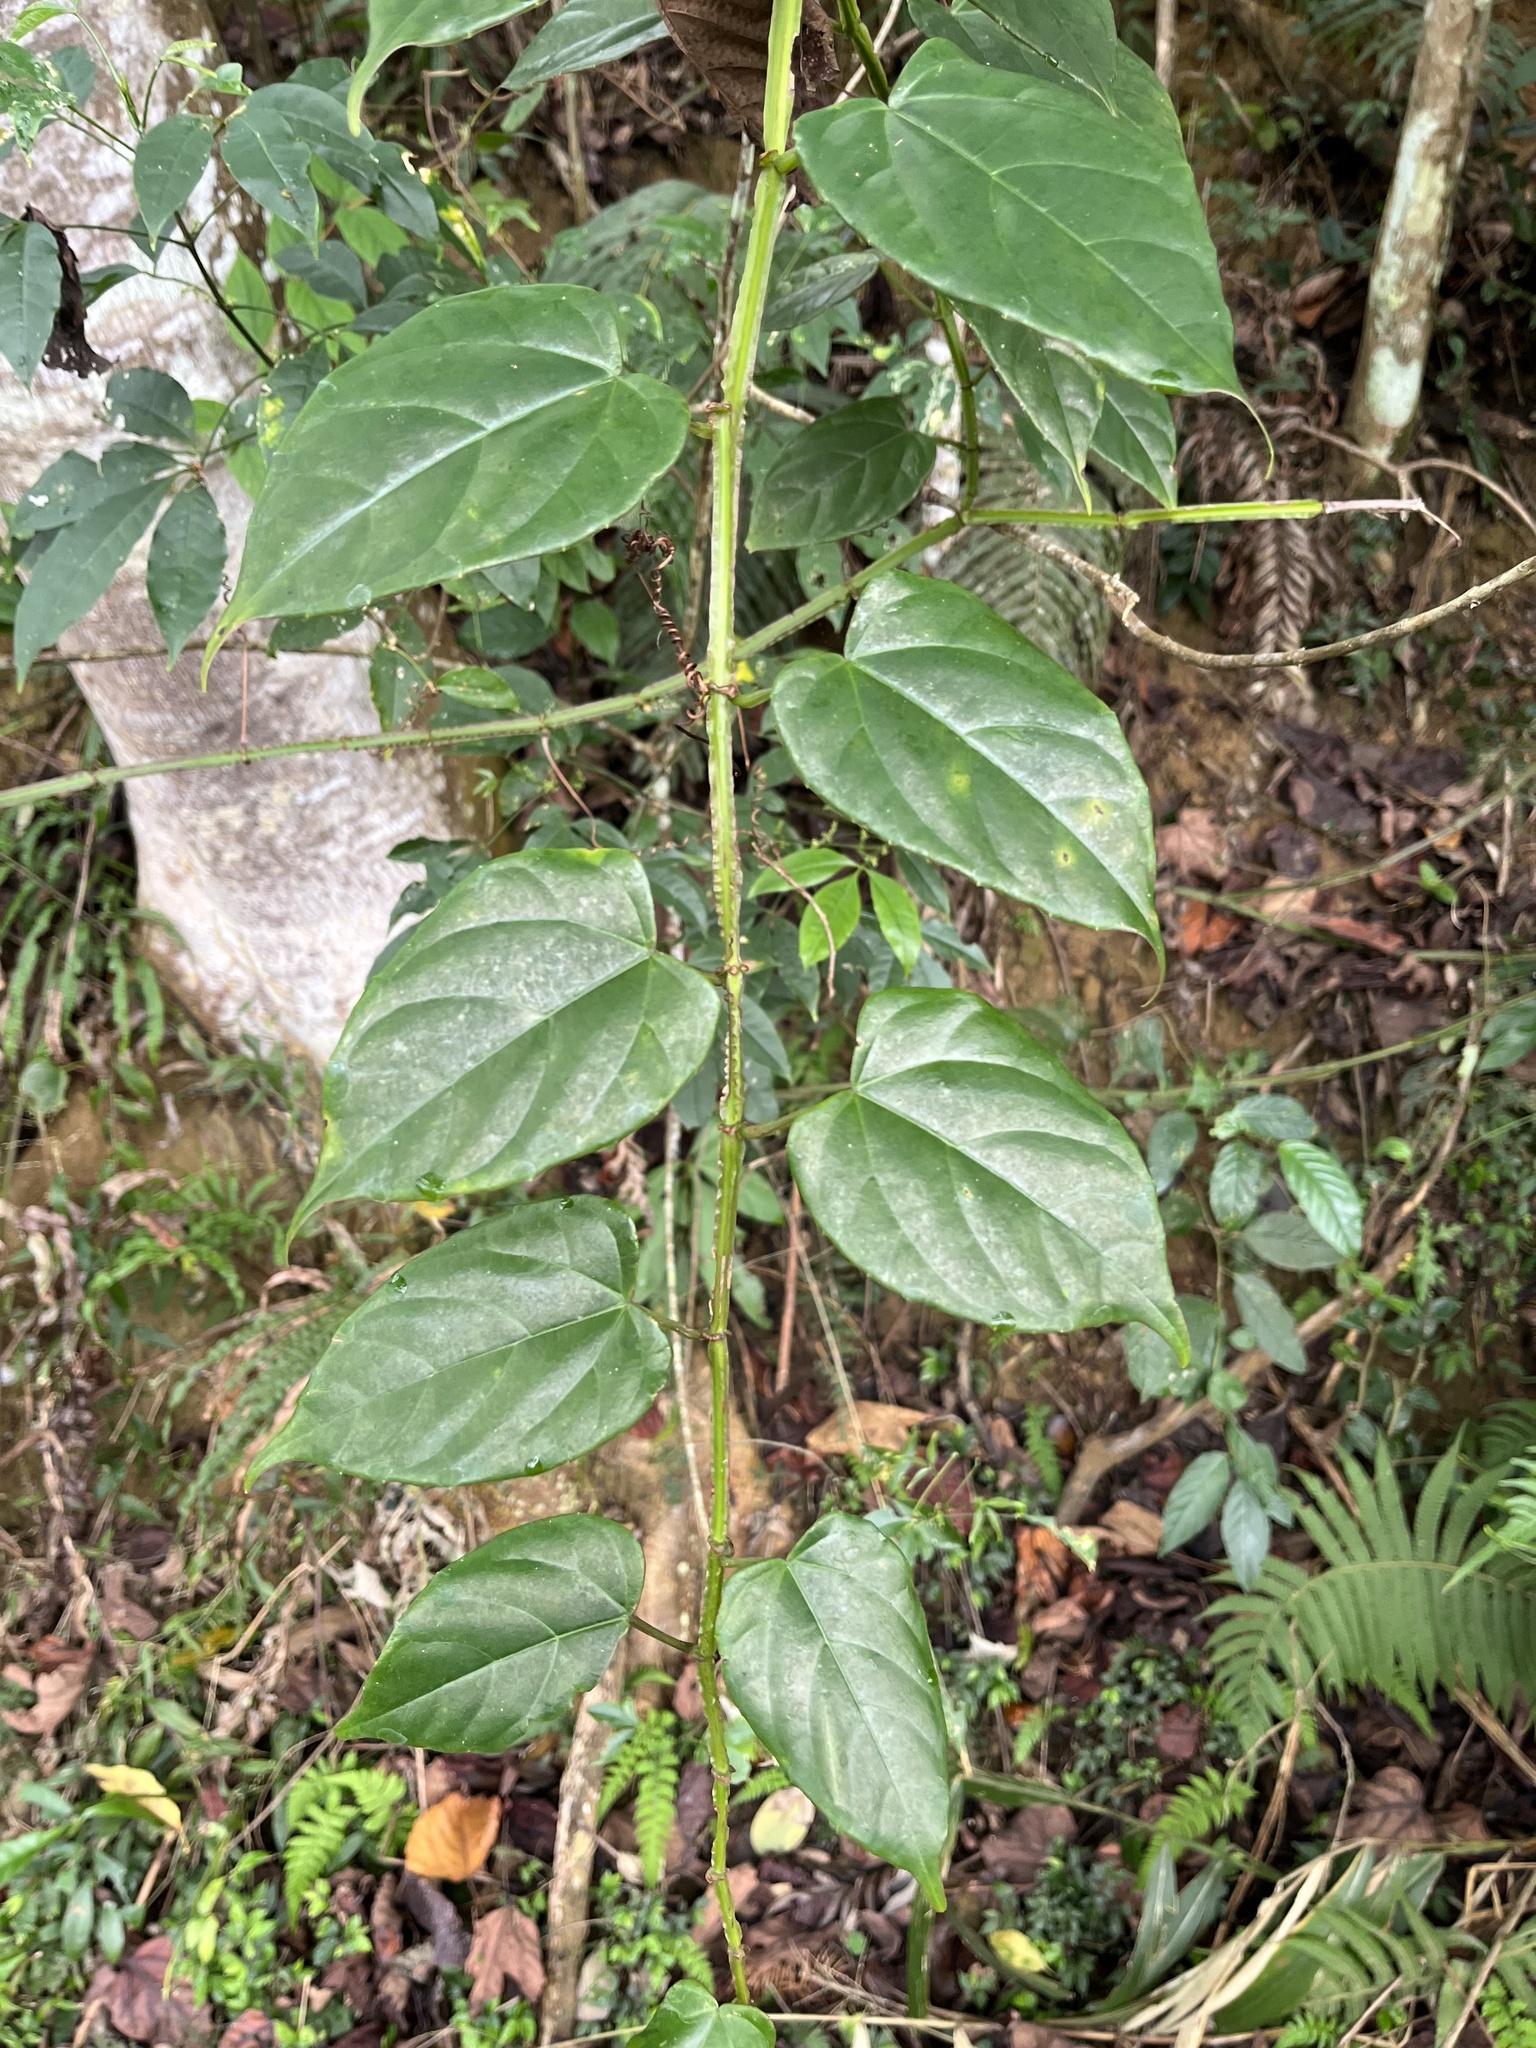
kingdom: Plantae
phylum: Tracheophyta
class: Magnoliopsida
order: Vitales
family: Vitaceae
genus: Cissus
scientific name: Cissus pteroclada
